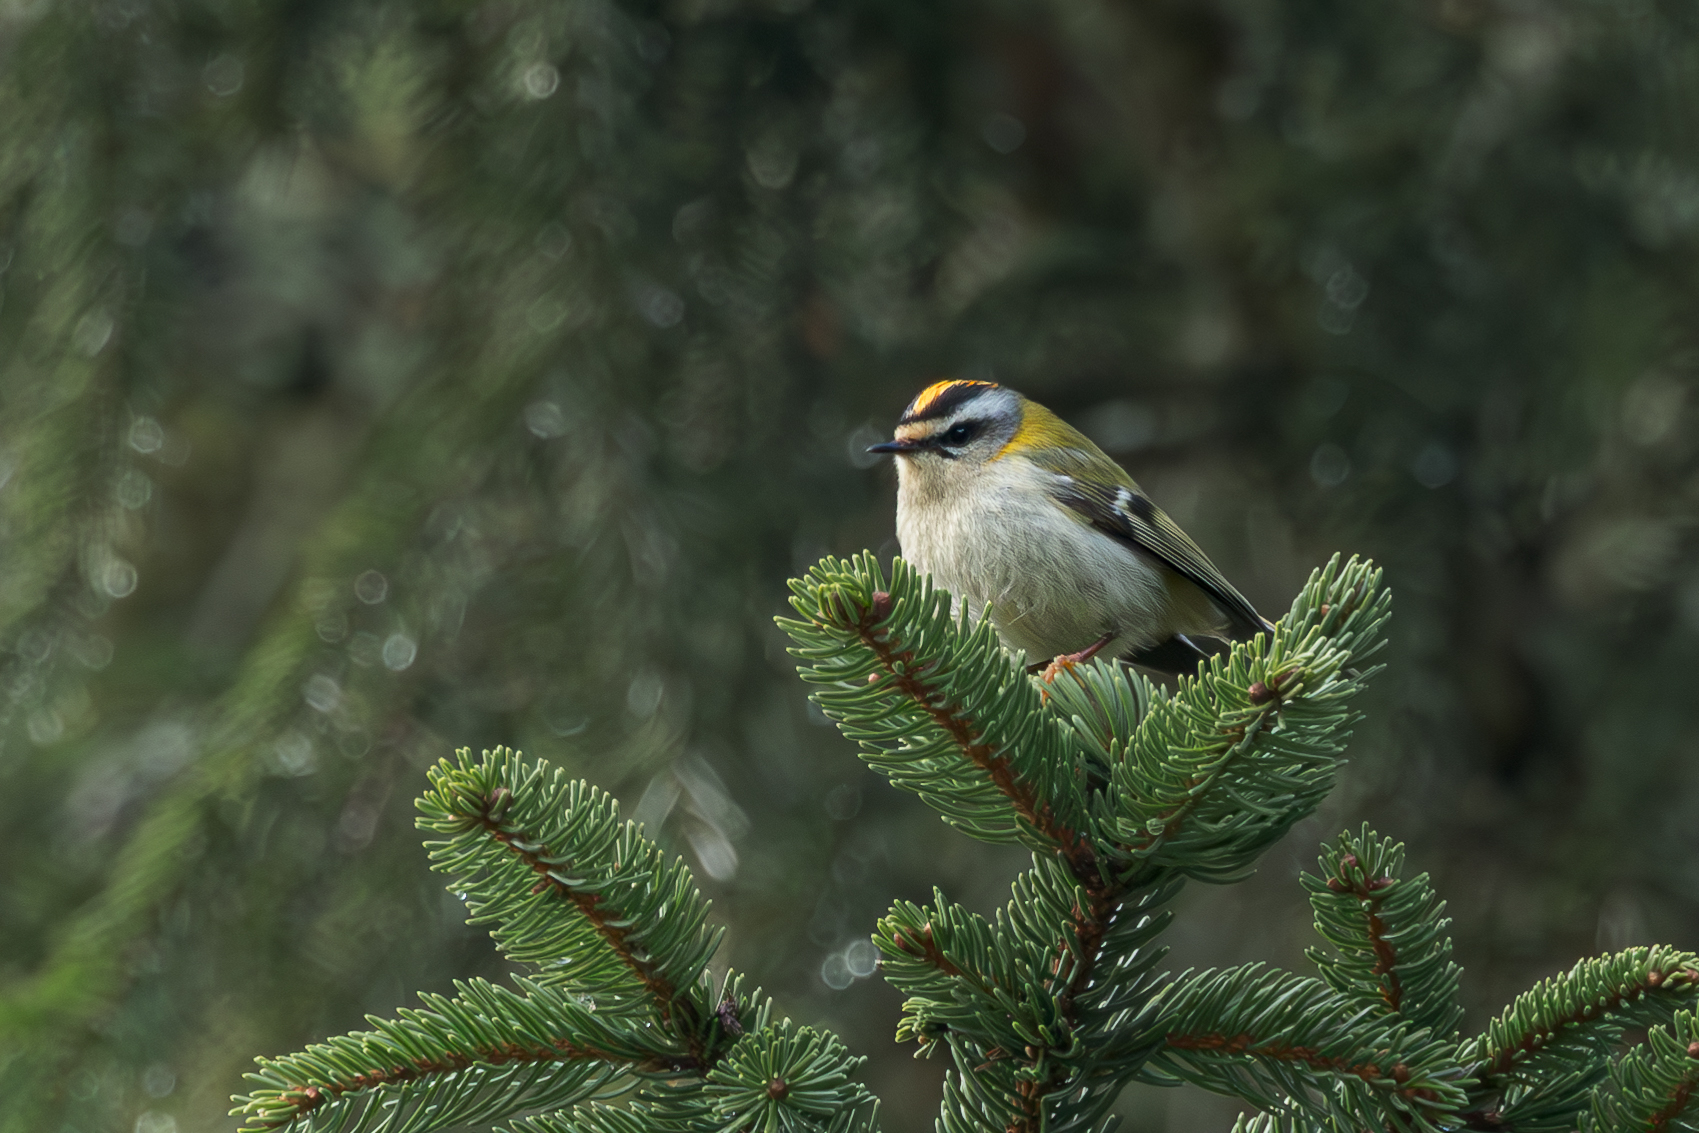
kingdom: Animalia
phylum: Chordata
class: Aves
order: Passeriformes
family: Regulidae
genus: Regulus
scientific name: Regulus ignicapilla
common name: Firecrest
